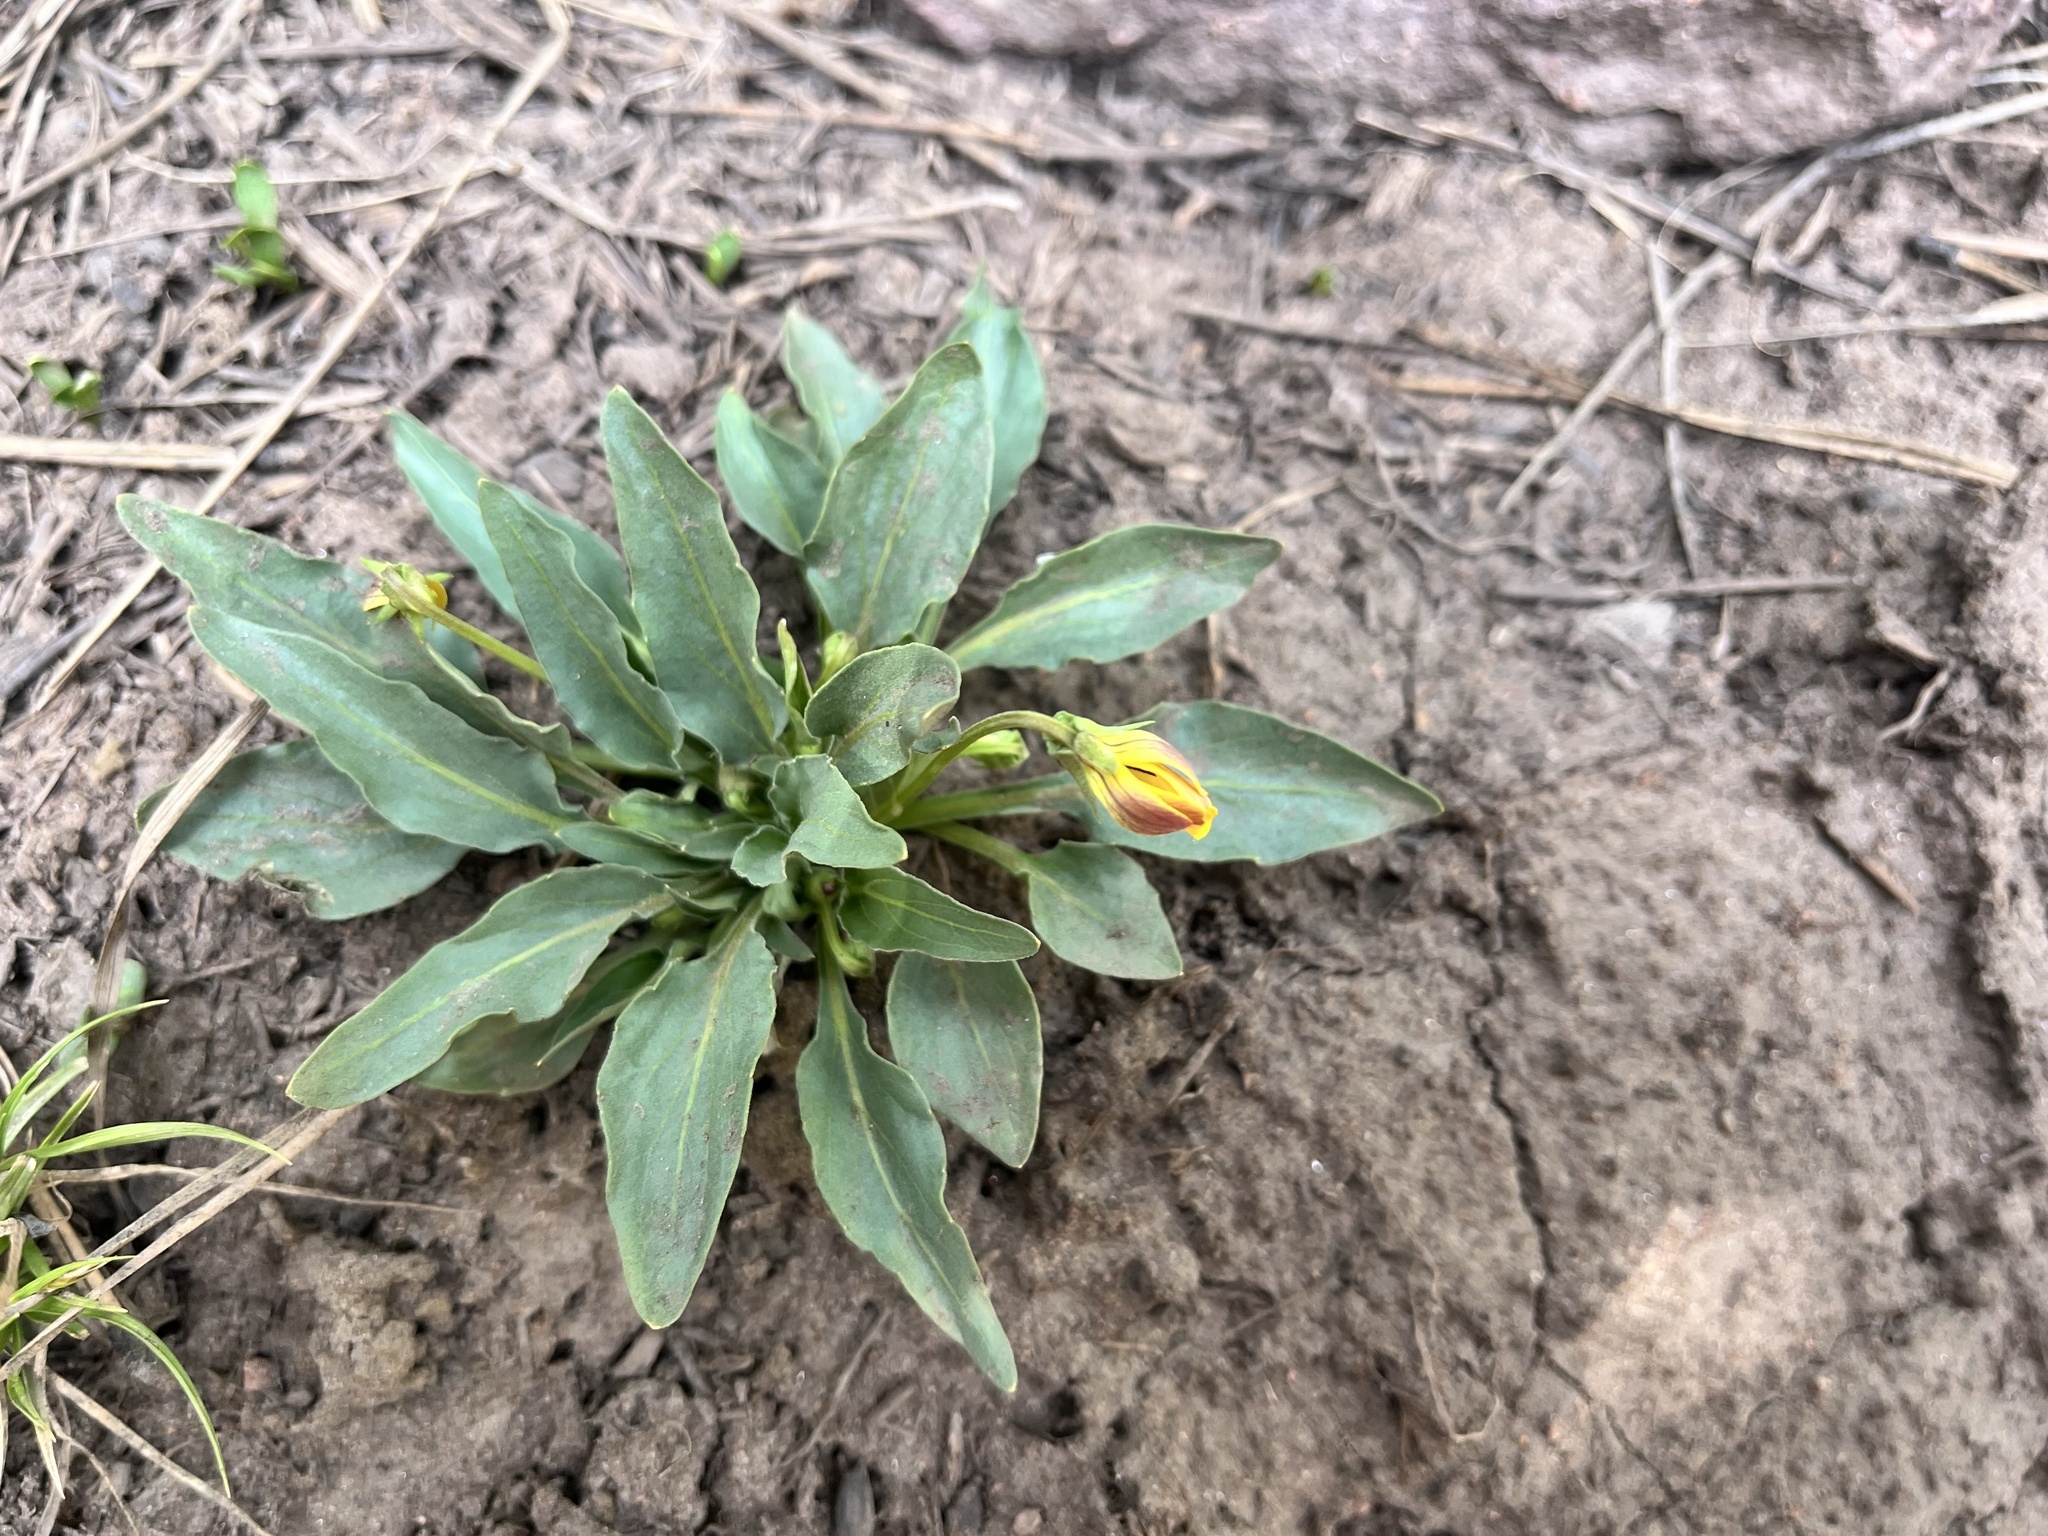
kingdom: Plantae
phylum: Tracheophyta
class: Magnoliopsida
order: Malpighiales
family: Violaceae
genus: Viola
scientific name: Viola nuttallii
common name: Yellow prairie violet
